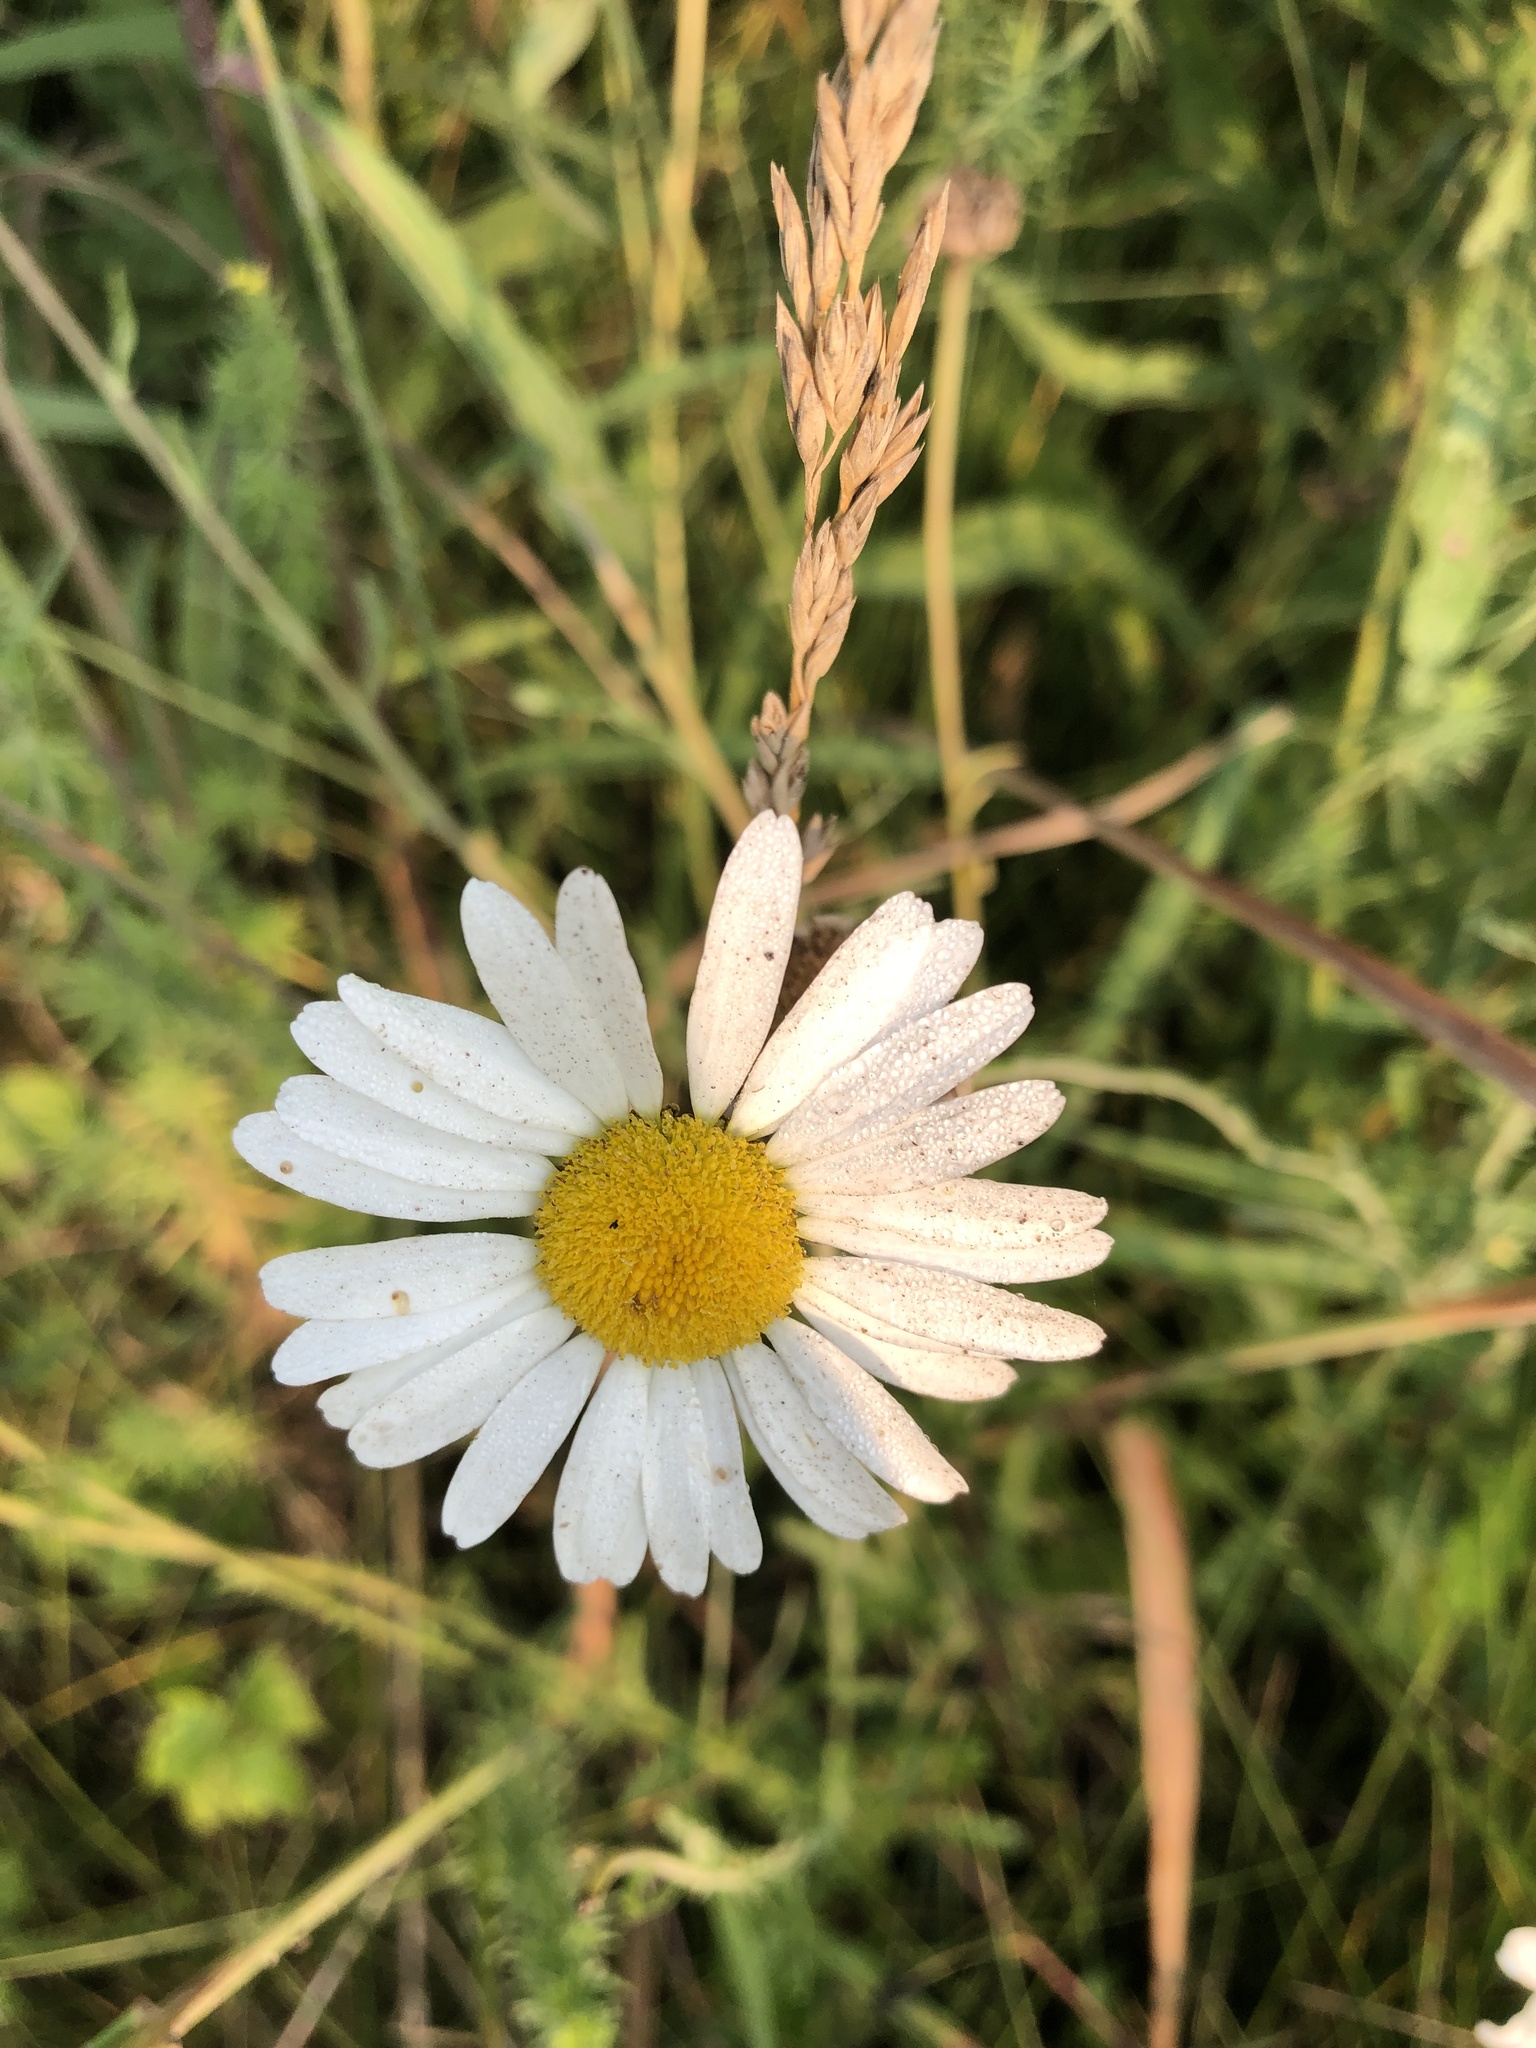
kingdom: Plantae
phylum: Tracheophyta
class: Magnoliopsida
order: Asterales
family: Asteraceae
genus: Leucanthemum
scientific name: Leucanthemum vulgare
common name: Oxeye daisy
